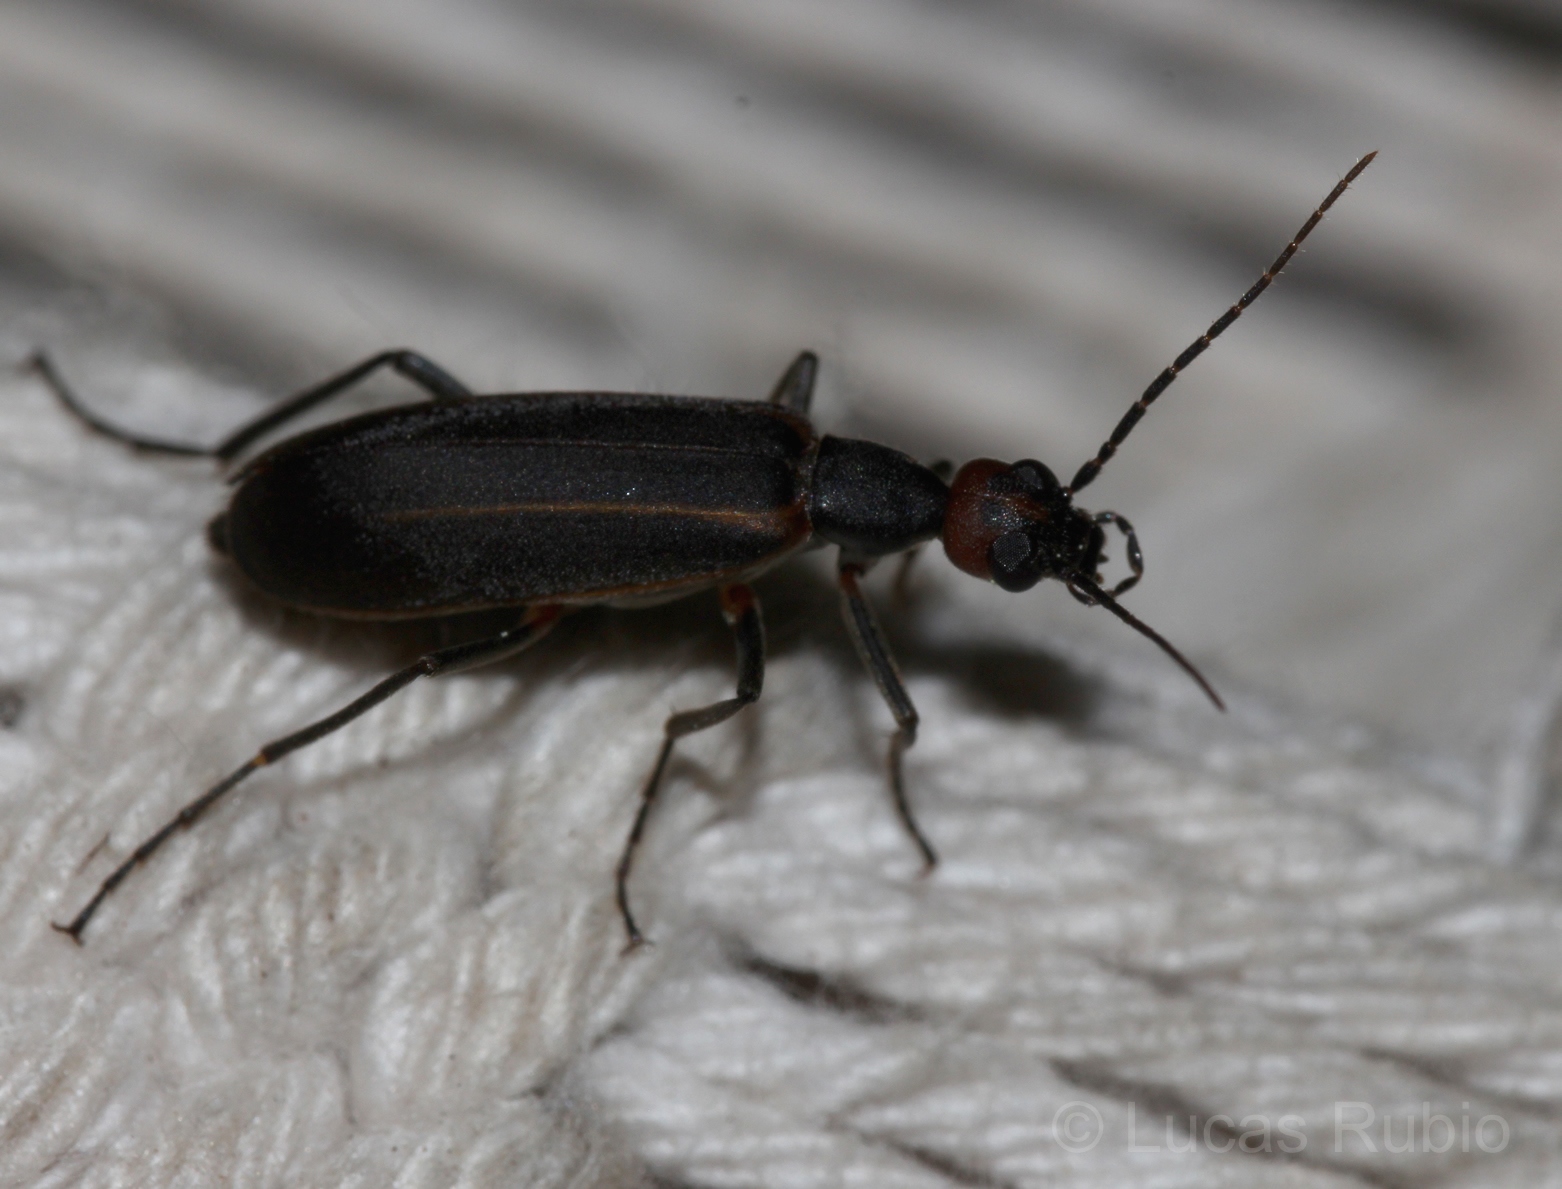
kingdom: Animalia
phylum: Arthropoda
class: Insecta
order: Coleoptera
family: Meloidae
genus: Epicauta
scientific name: Epicauta grammica
